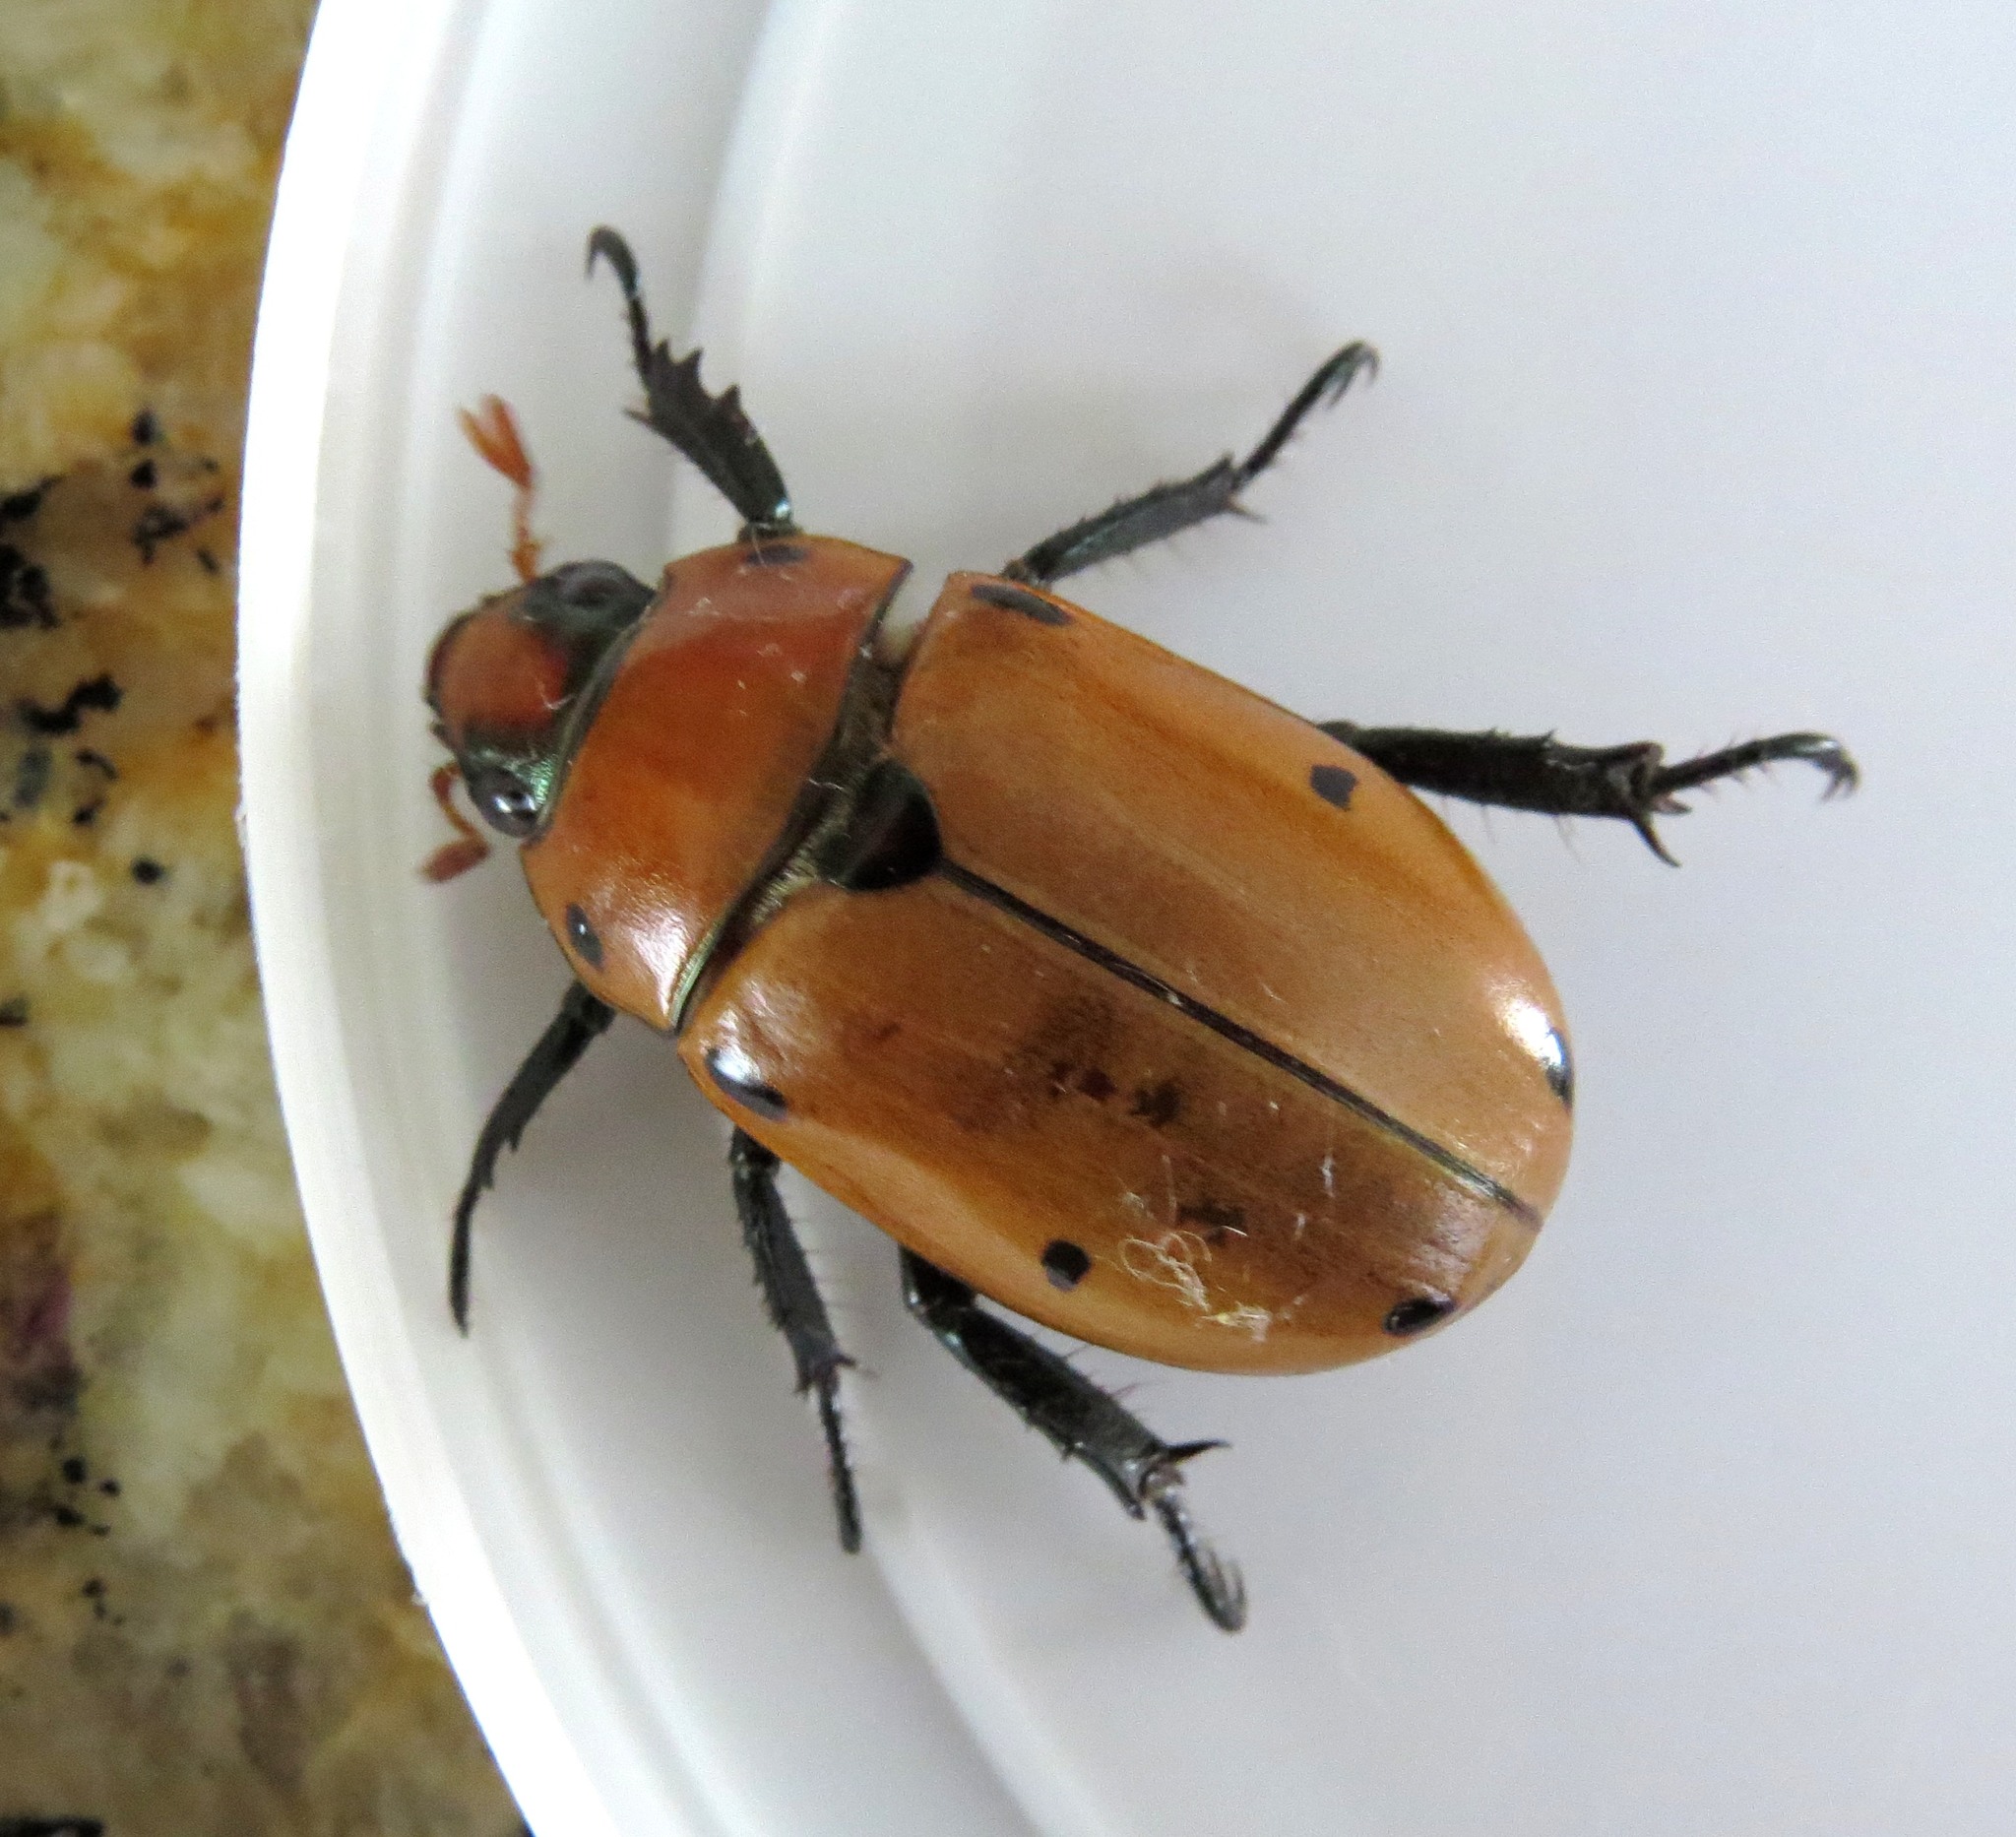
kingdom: Animalia
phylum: Arthropoda
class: Insecta
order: Coleoptera
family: Scarabaeidae
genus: Pelidnota
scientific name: Pelidnota punctata
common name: Grapevine beetle
